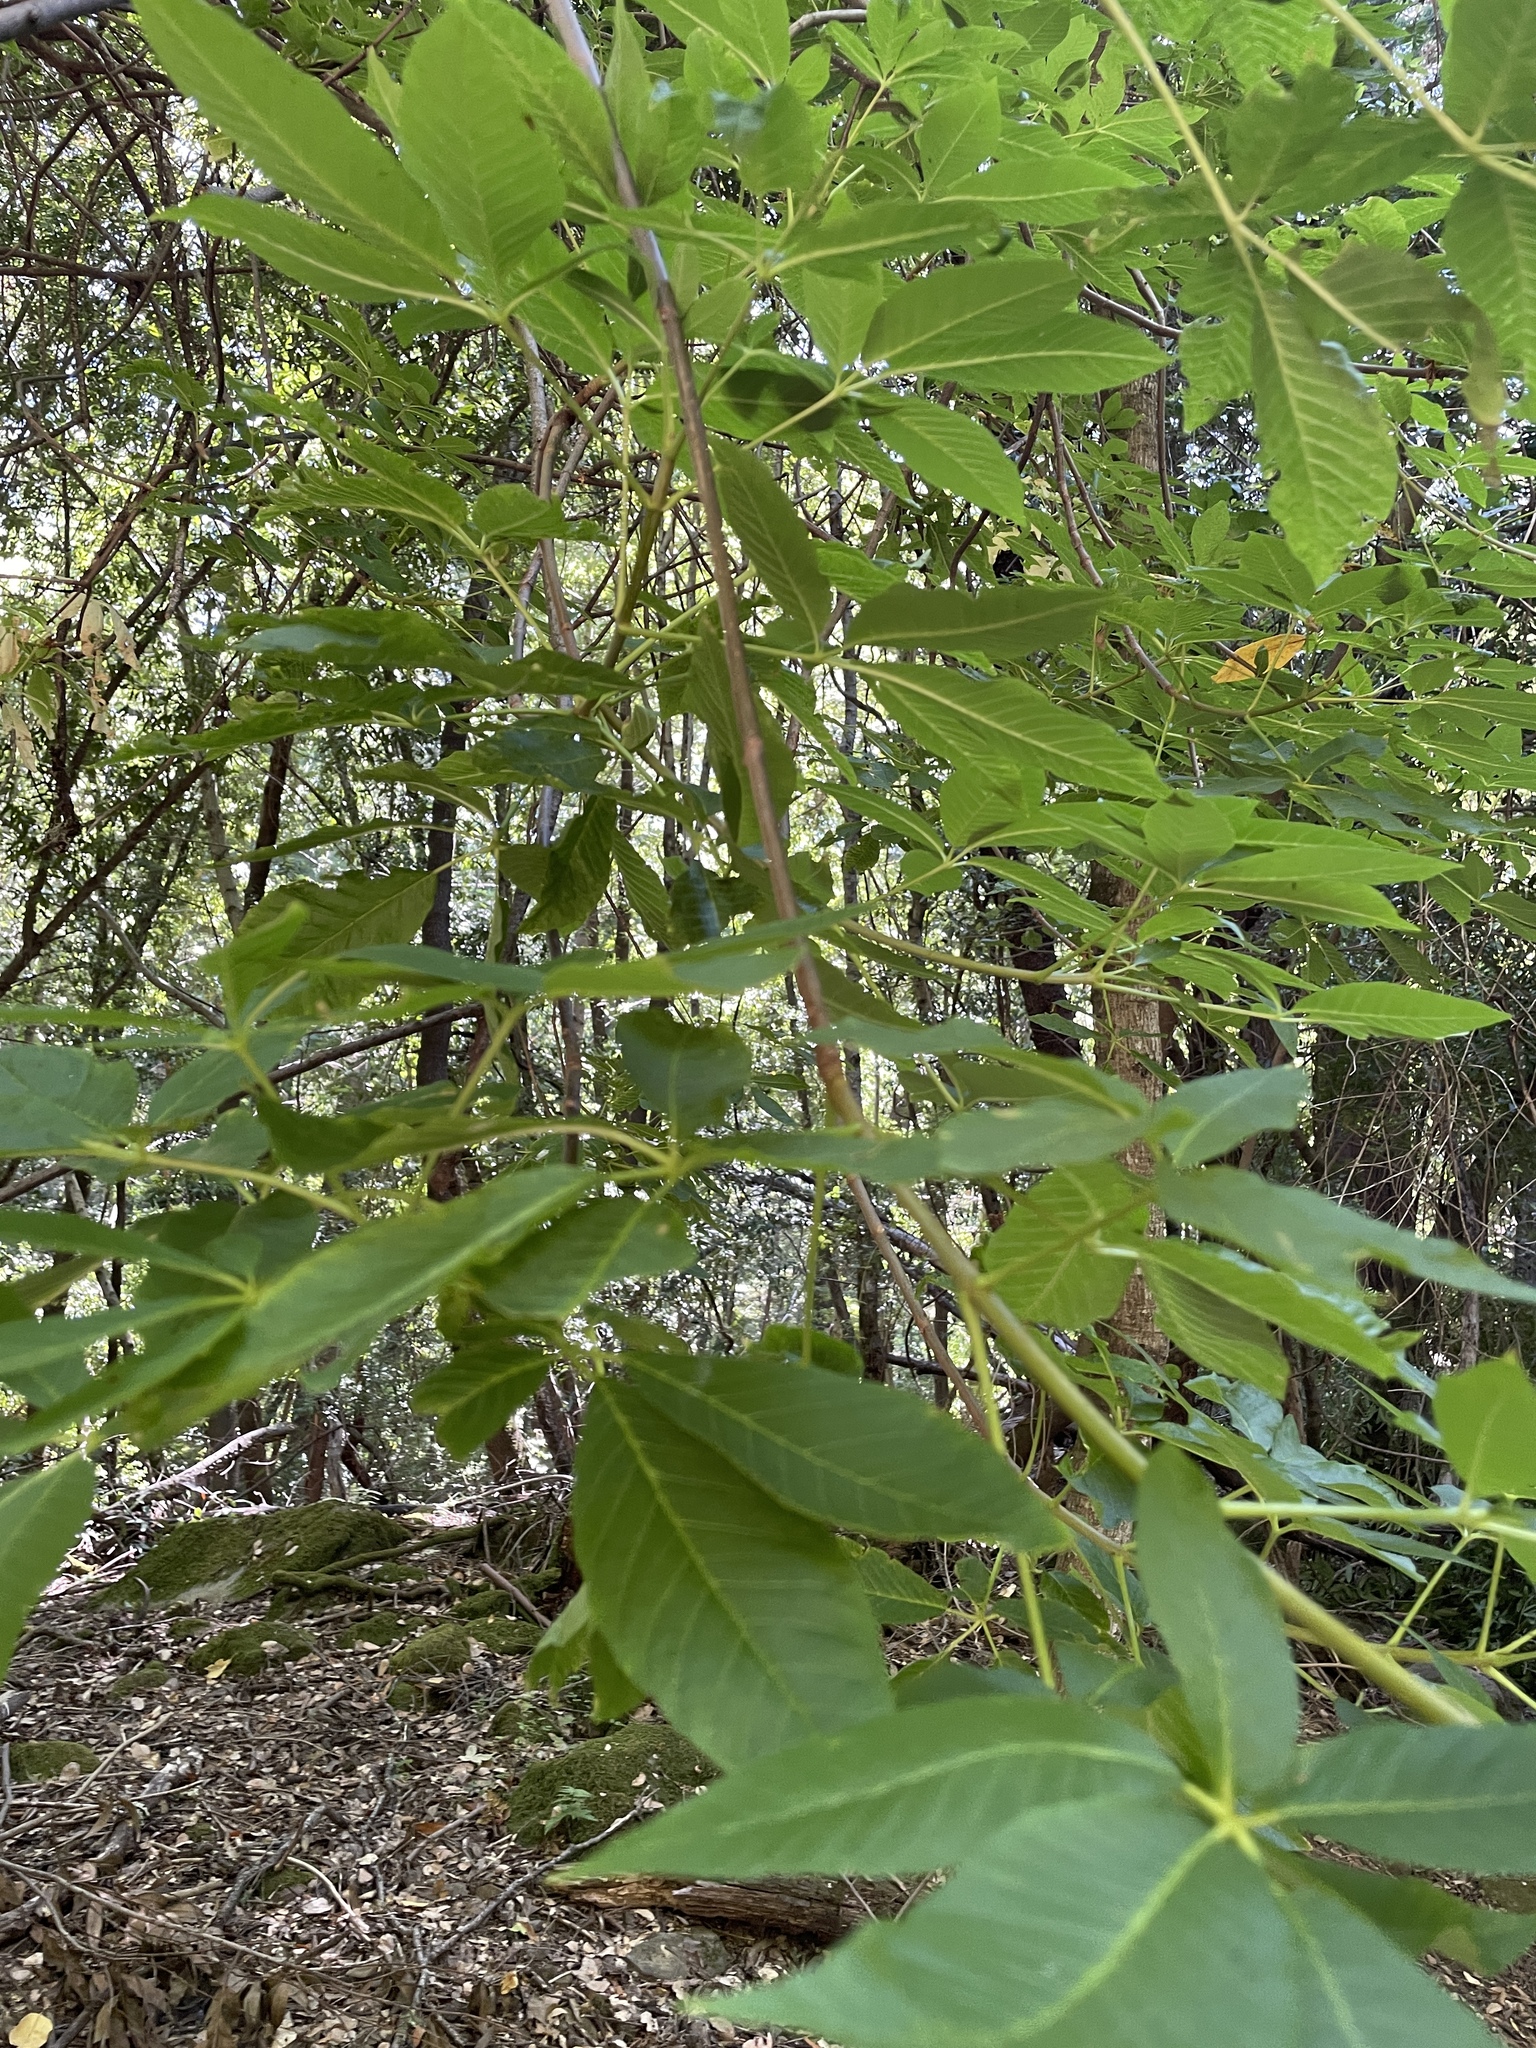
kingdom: Plantae
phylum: Tracheophyta
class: Magnoliopsida
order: Sapindales
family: Sapindaceae
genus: Aesculus
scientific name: Aesculus californica
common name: California buckeye
